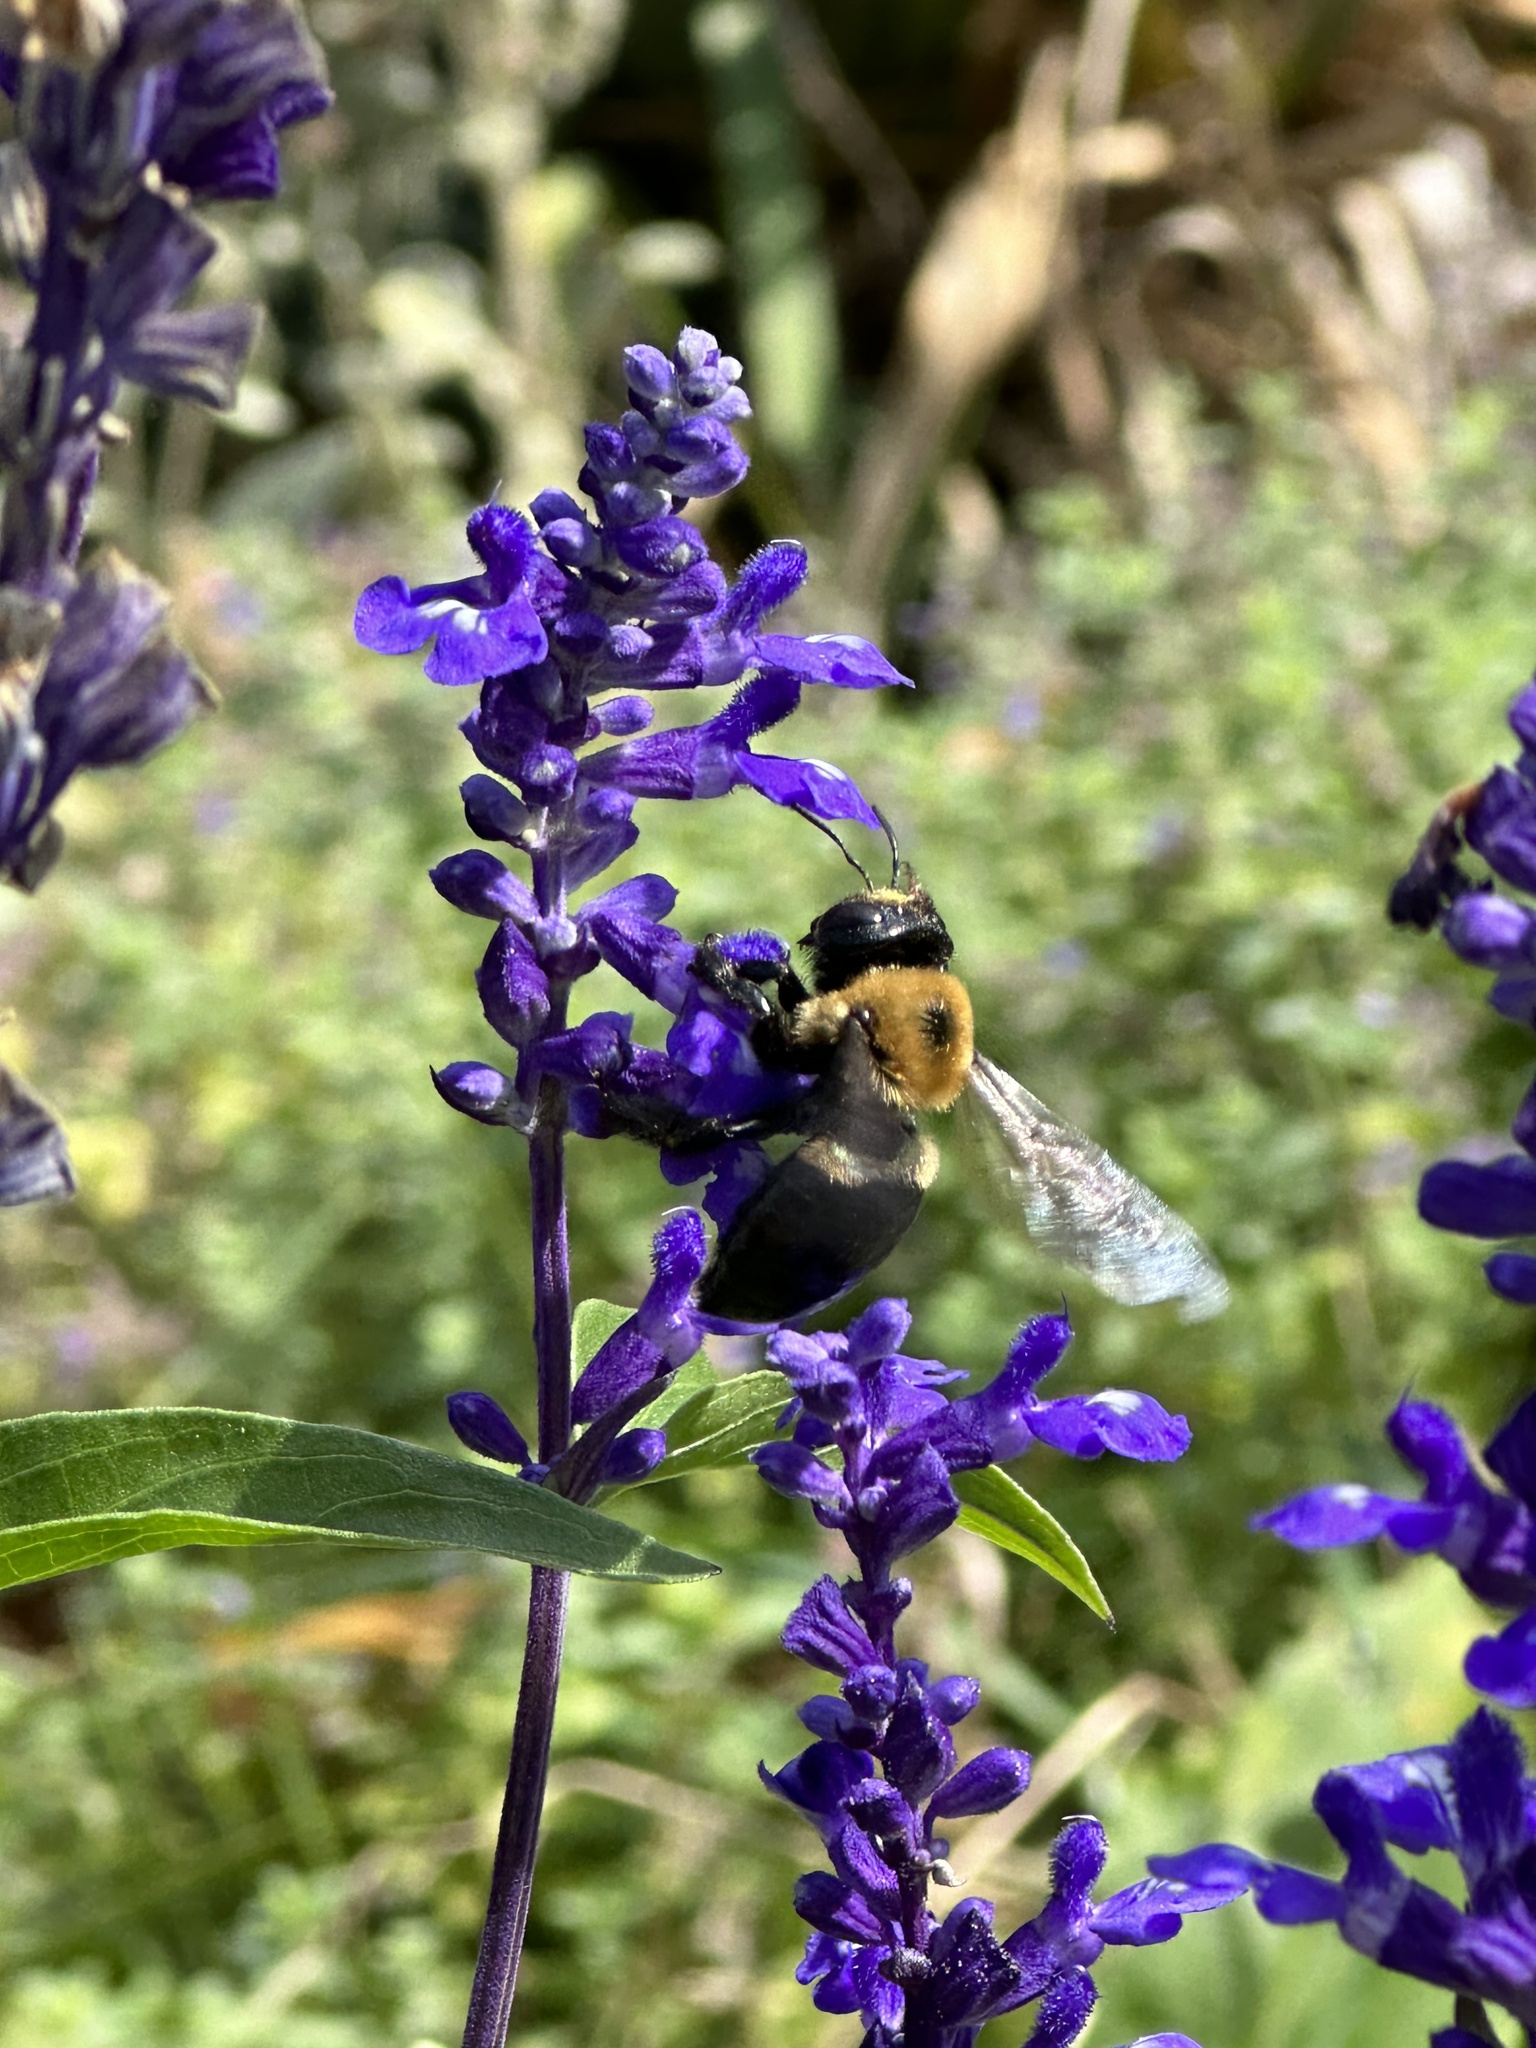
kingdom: Animalia
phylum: Arthropoda
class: Insecta
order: Hymenoptera
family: Apidae
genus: Xylocopa
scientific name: Xylocopa virginica
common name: Carpenter bee
